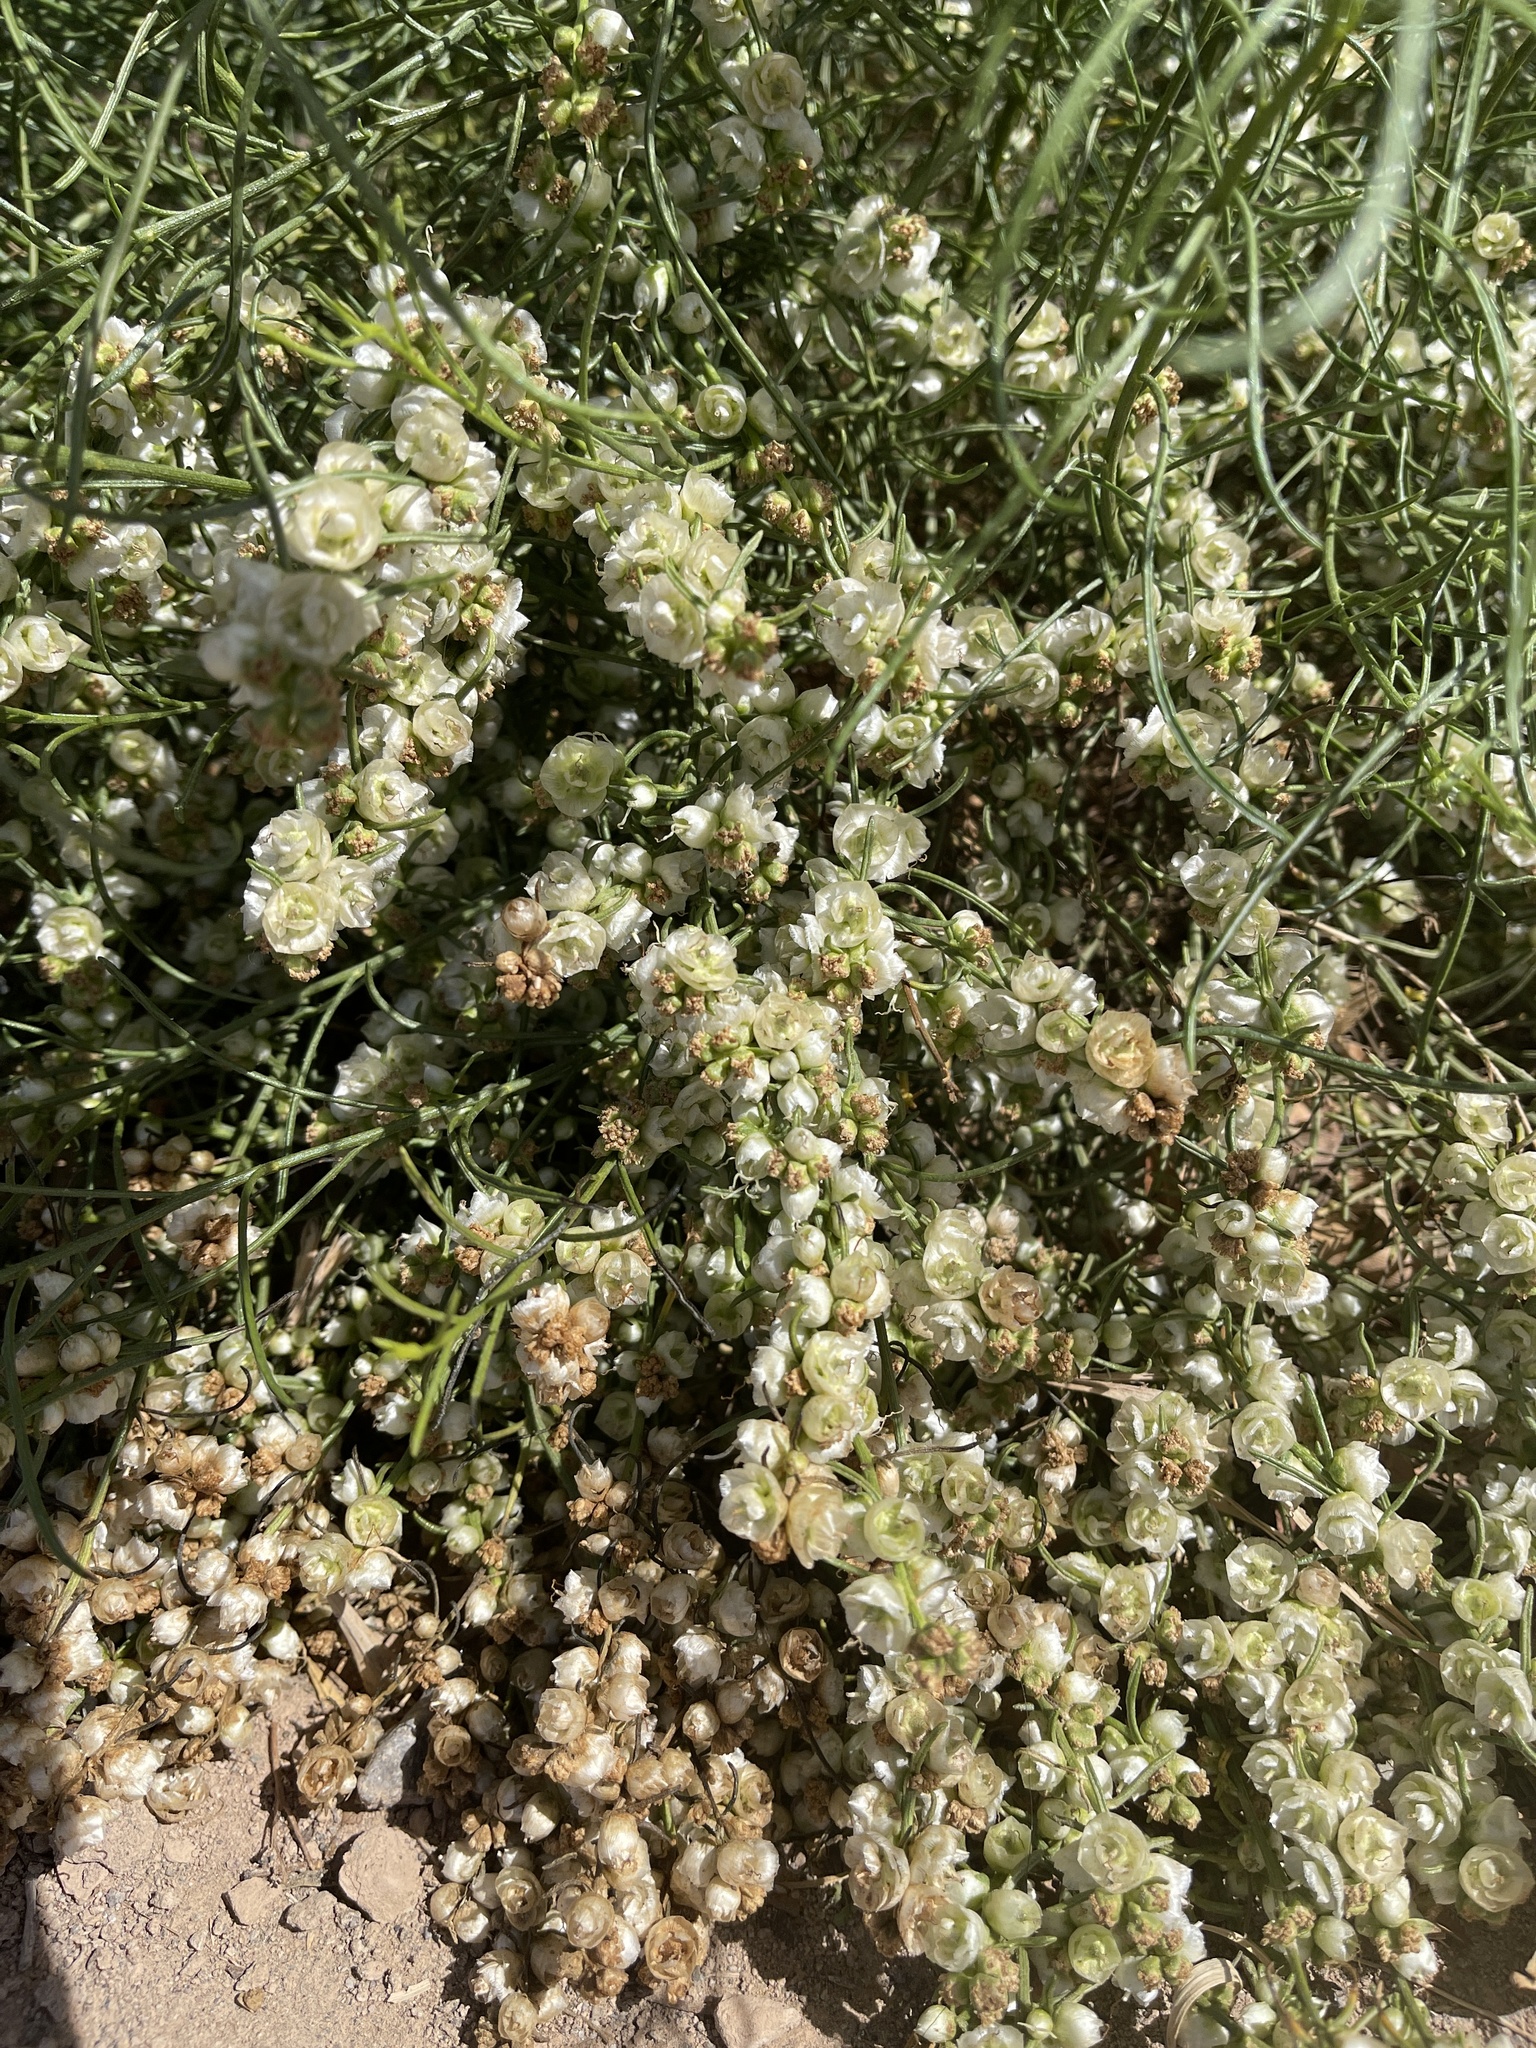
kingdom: Plantae
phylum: Tracheophyta
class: Magnoliopsida
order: Asterales
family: Asteraceae
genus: Ambrosia
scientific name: Ambrosia salsola
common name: Burrobrush
